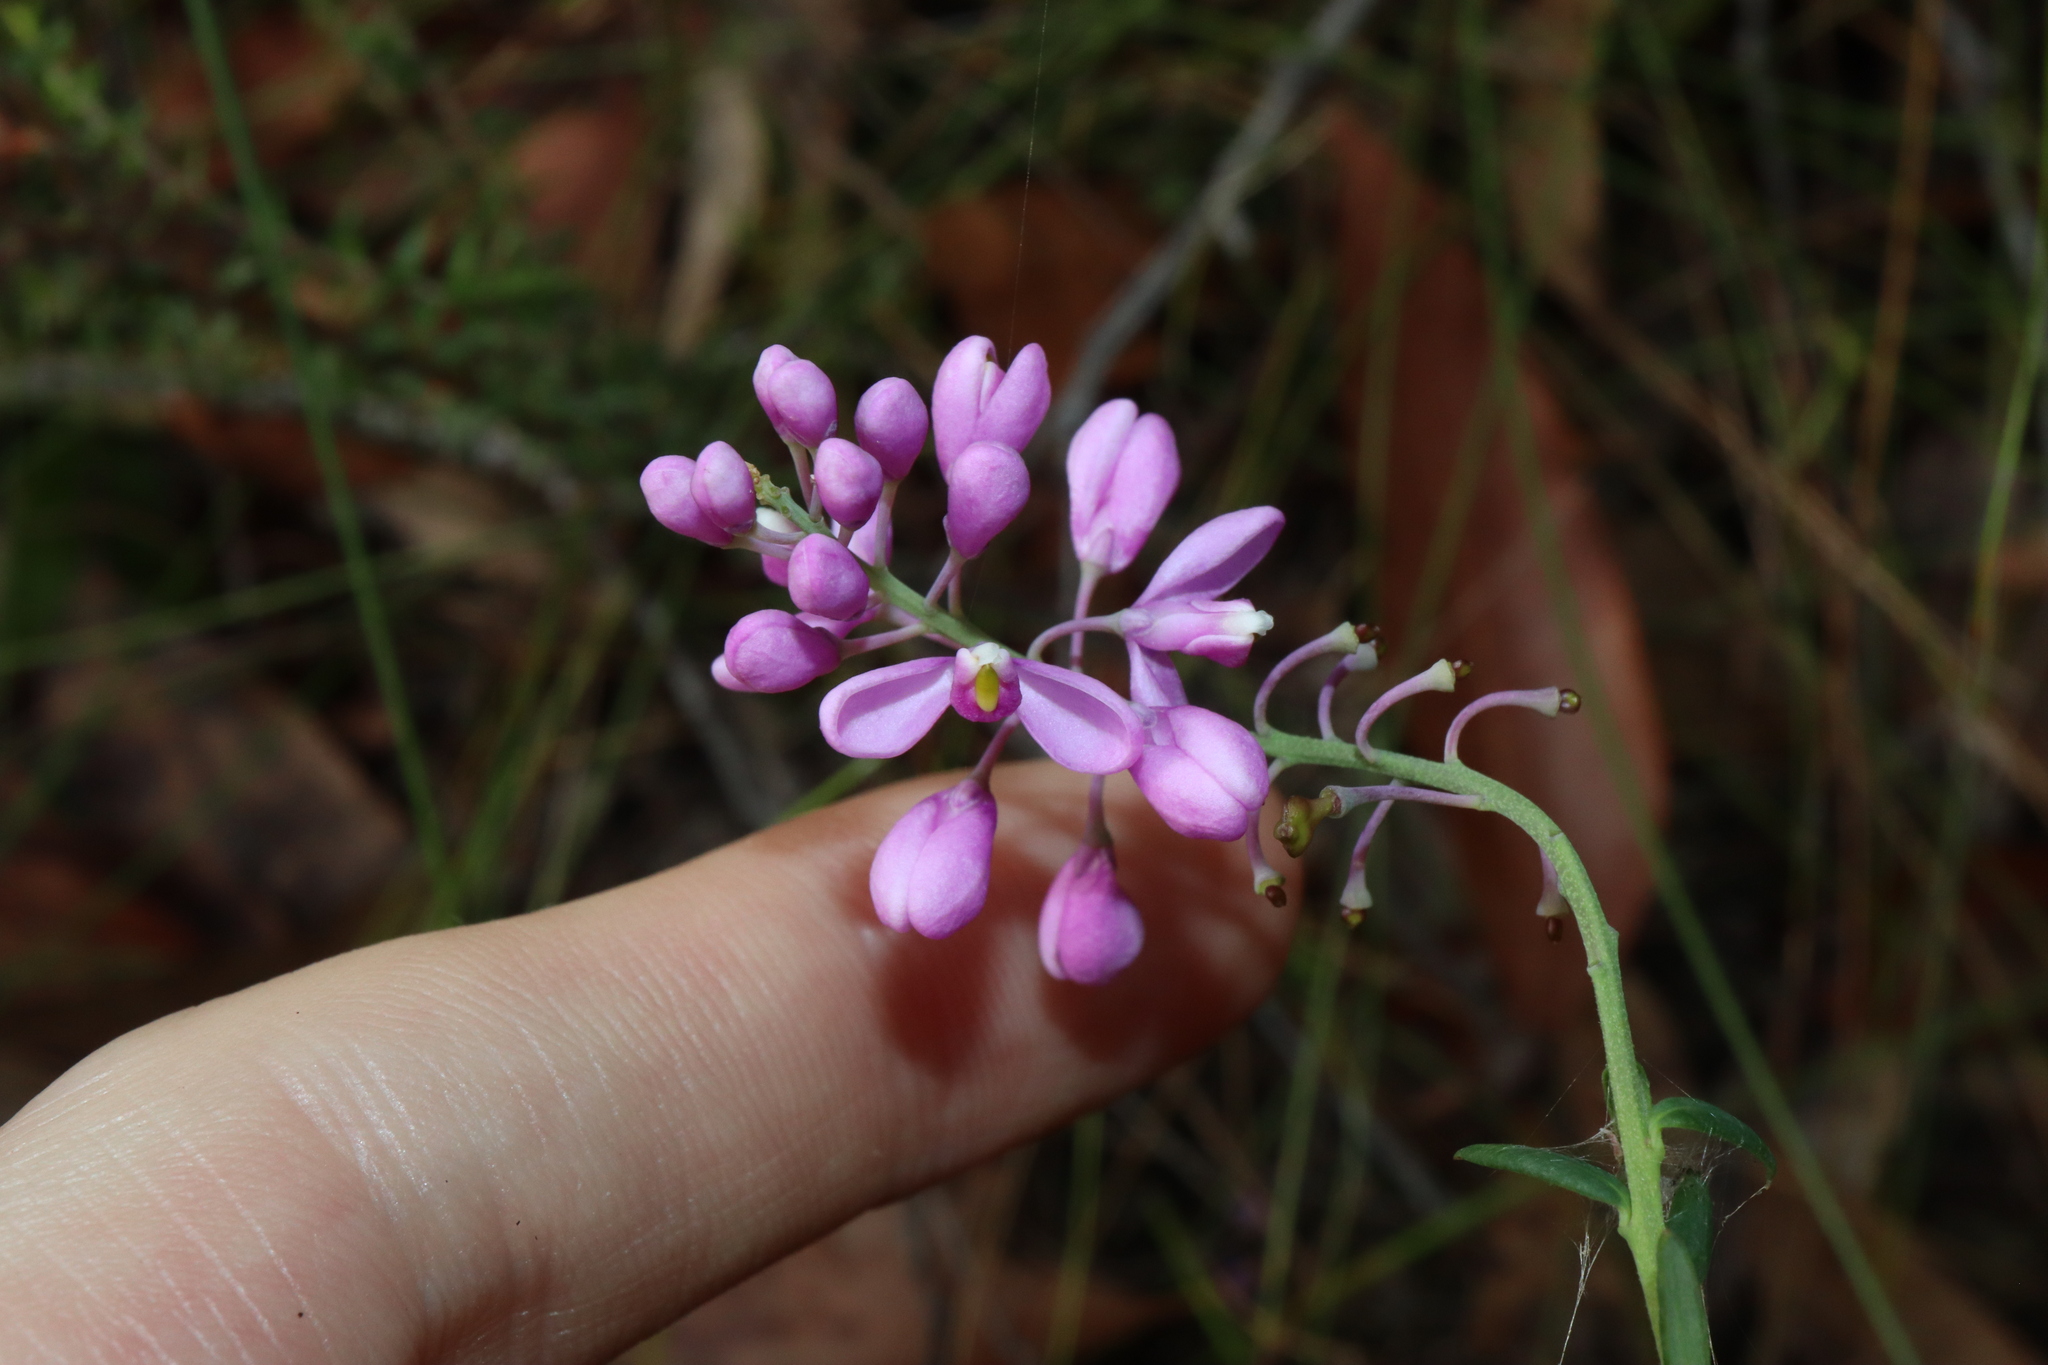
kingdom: Plantae
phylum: Tracheophyta
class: Magnoliopsida
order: Fabales
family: Polygalaceae
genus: Comesperma
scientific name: Comesperma ericinum
